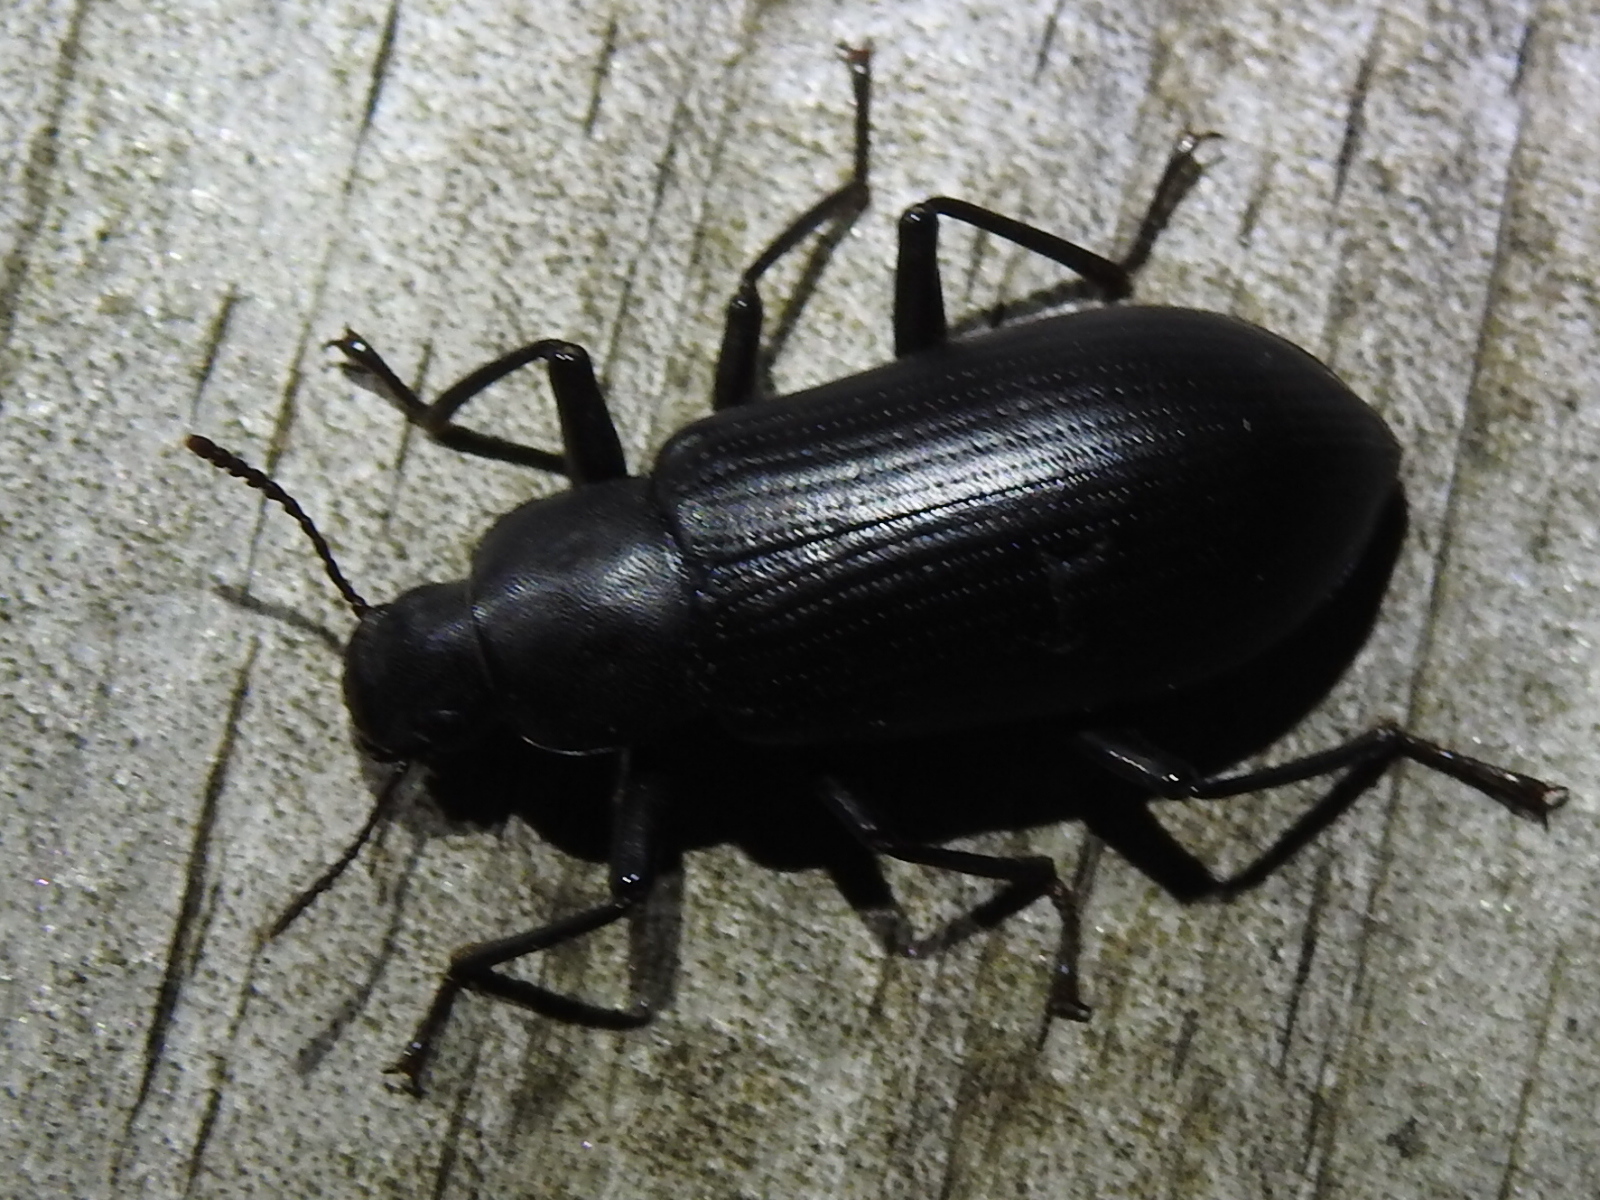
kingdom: Animalia
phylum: Arthropoda
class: Insecta
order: Coleoptera
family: Tenebrionidae
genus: Alobates
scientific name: Alobates
